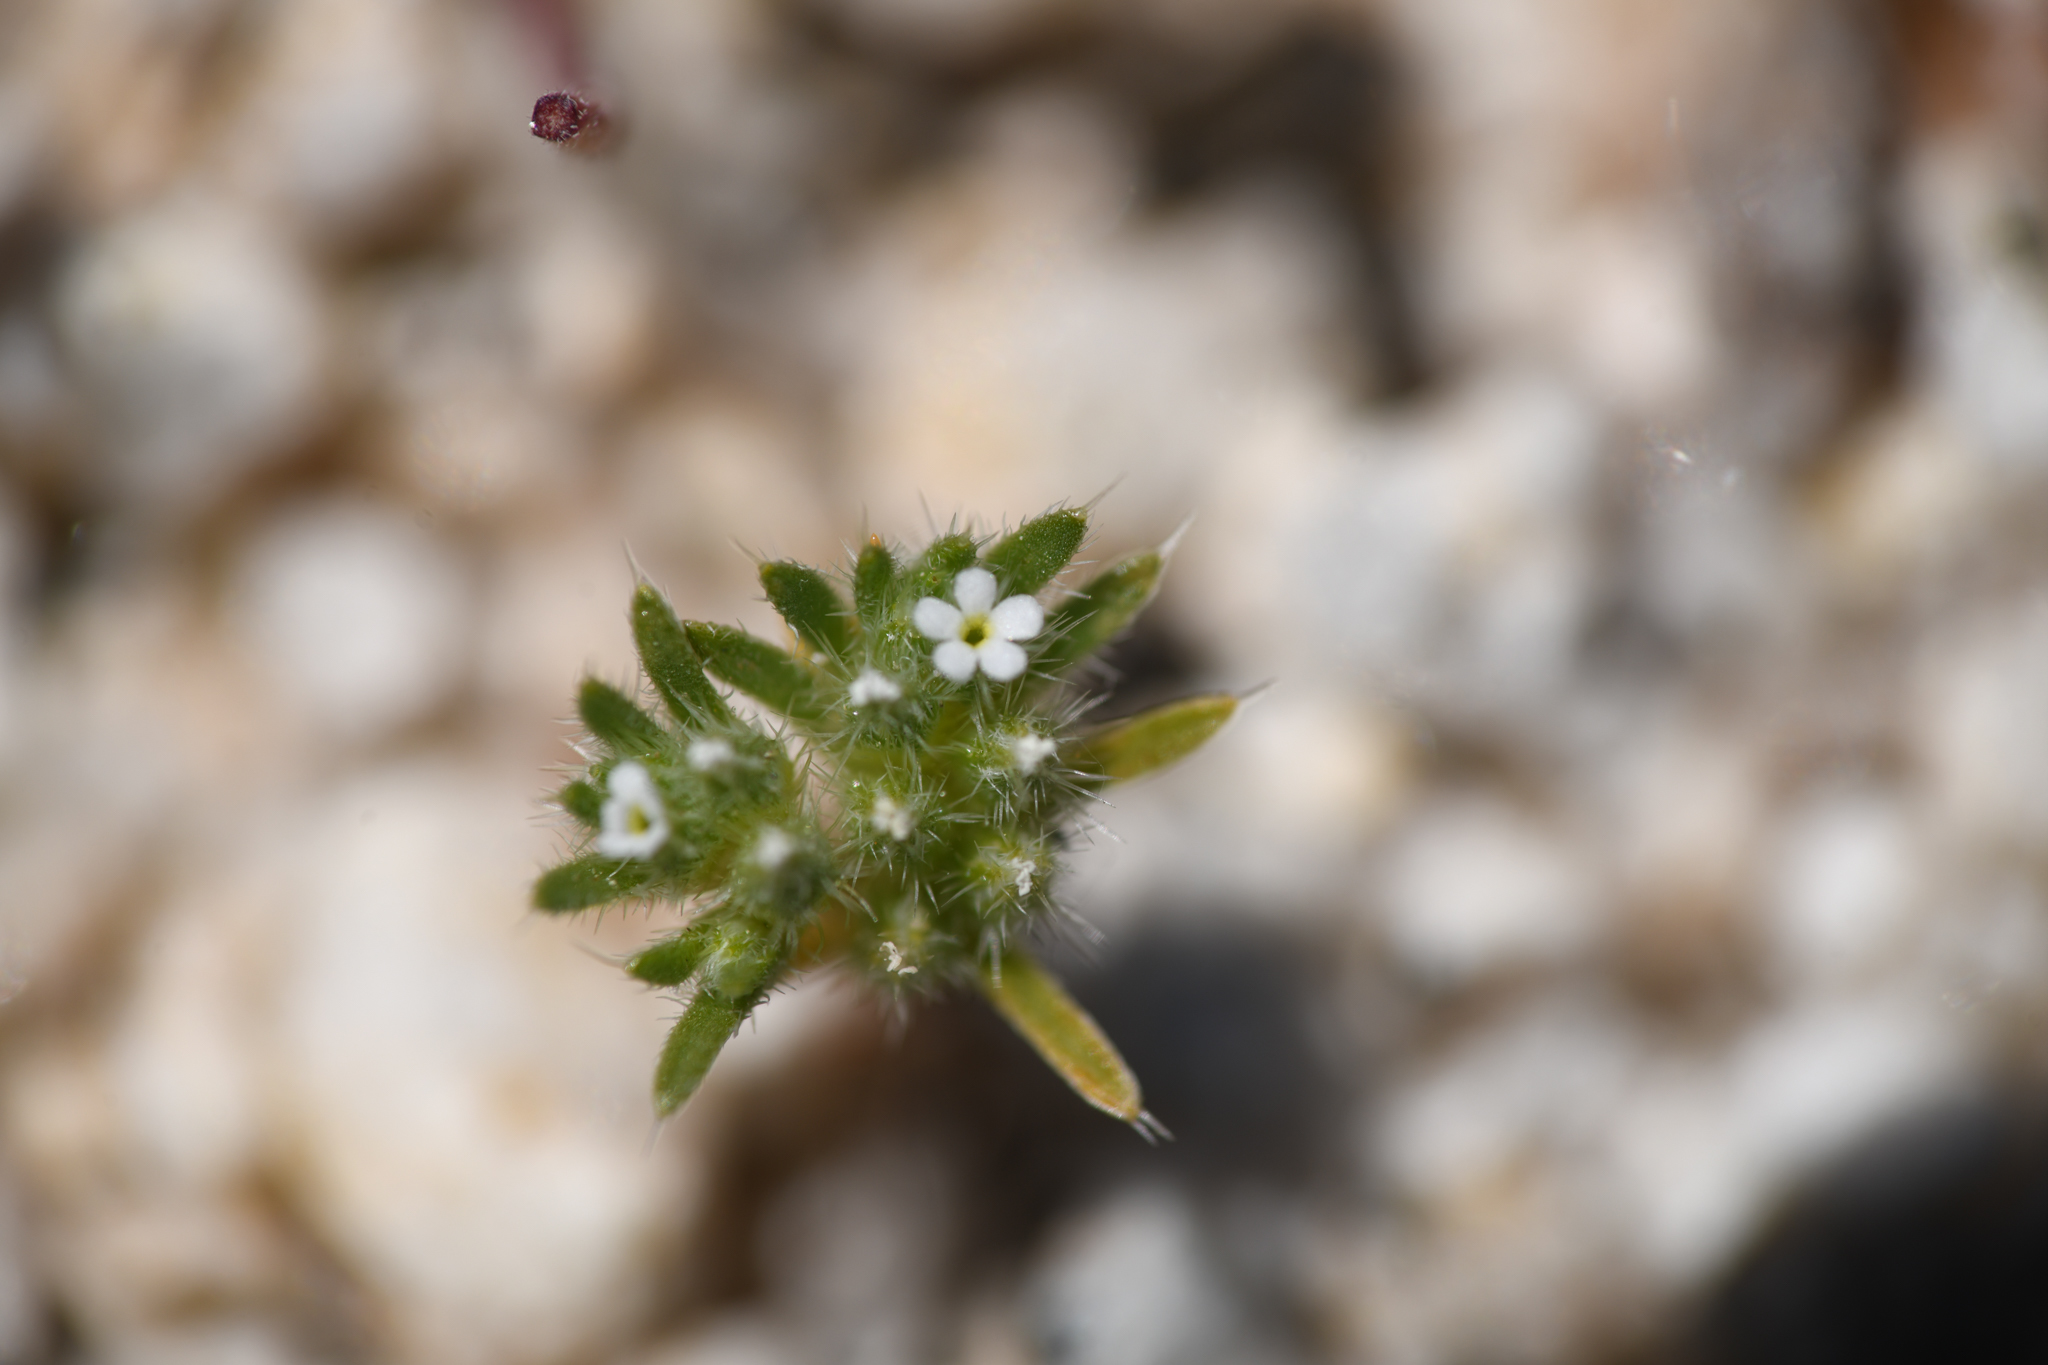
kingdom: Plantae
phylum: Tracheophyta
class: Magnoliopsida
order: Boraginales
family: Boraginaceae
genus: Greeneocharis
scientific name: Greeneocharis circumscissa
